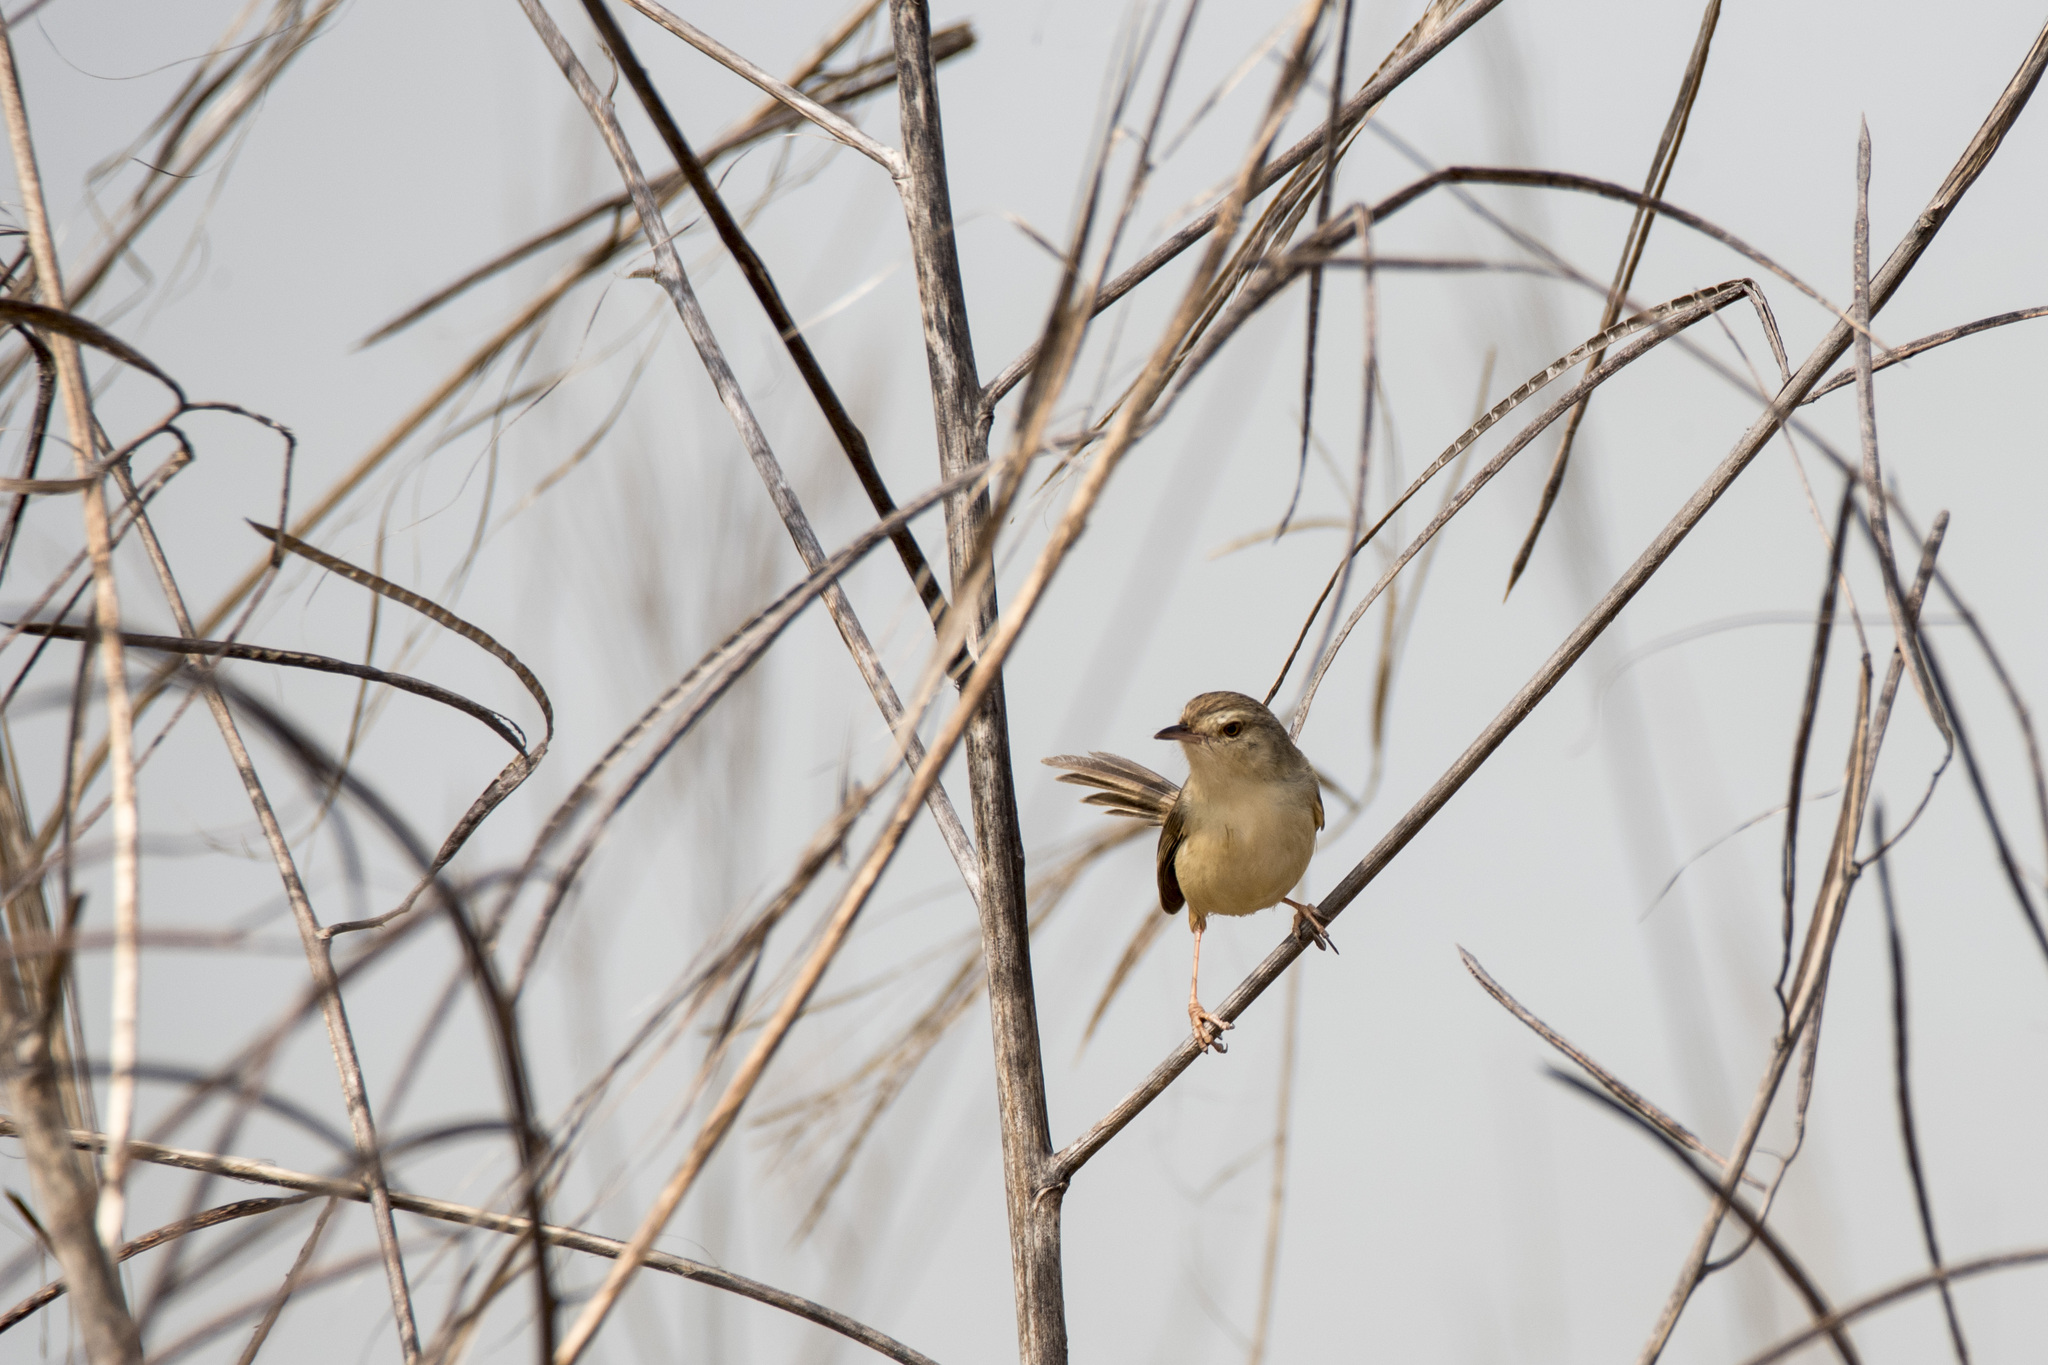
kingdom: Animalia
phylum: Chordata
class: Aves
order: Passeriformes
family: Cisticolidae
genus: Prinia
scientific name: Prinia inornata
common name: Plain prinia
